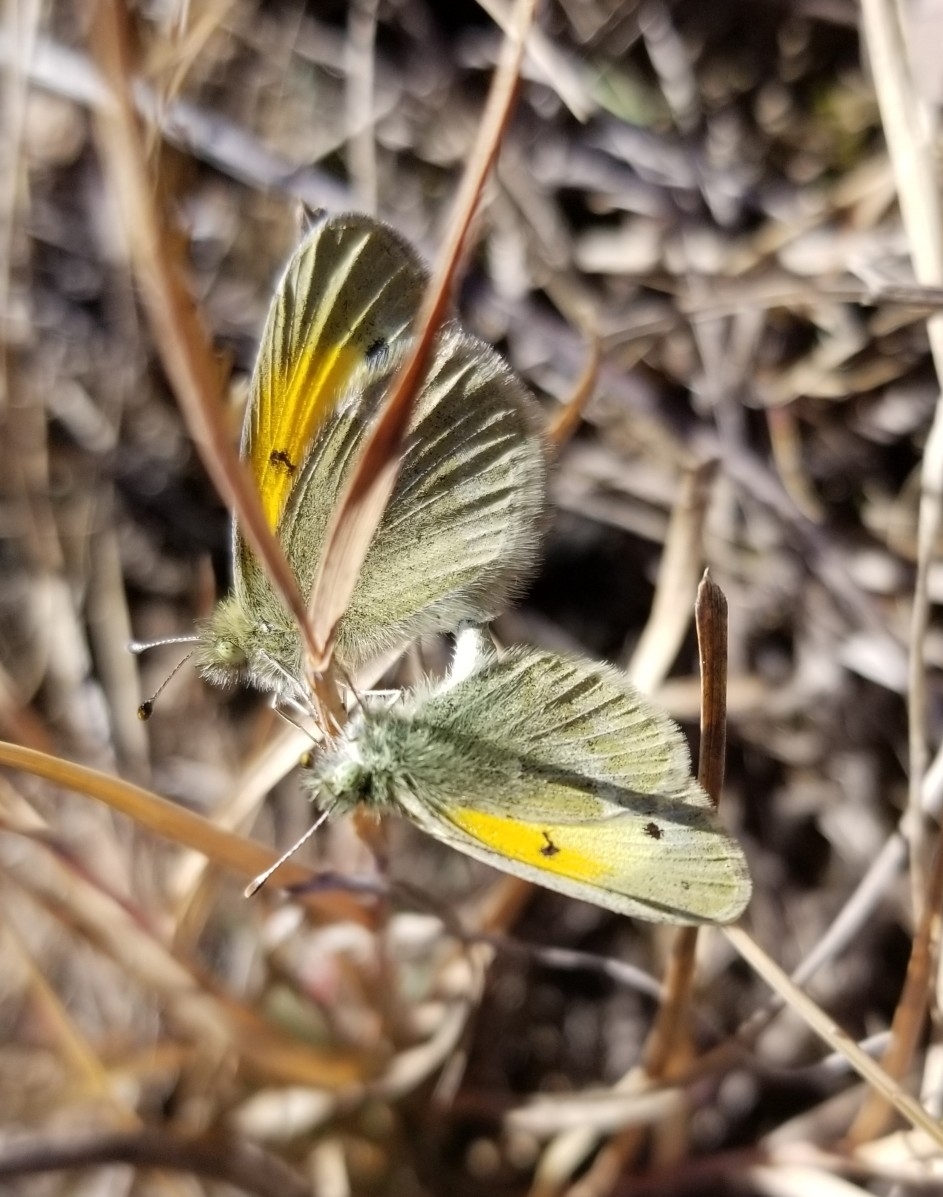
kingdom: Animalia
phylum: Arthropoda
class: Insecta
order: Lepidoptera
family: Pieridae
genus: Nathalis
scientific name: Nathalis iole
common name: Dainty sulphur
